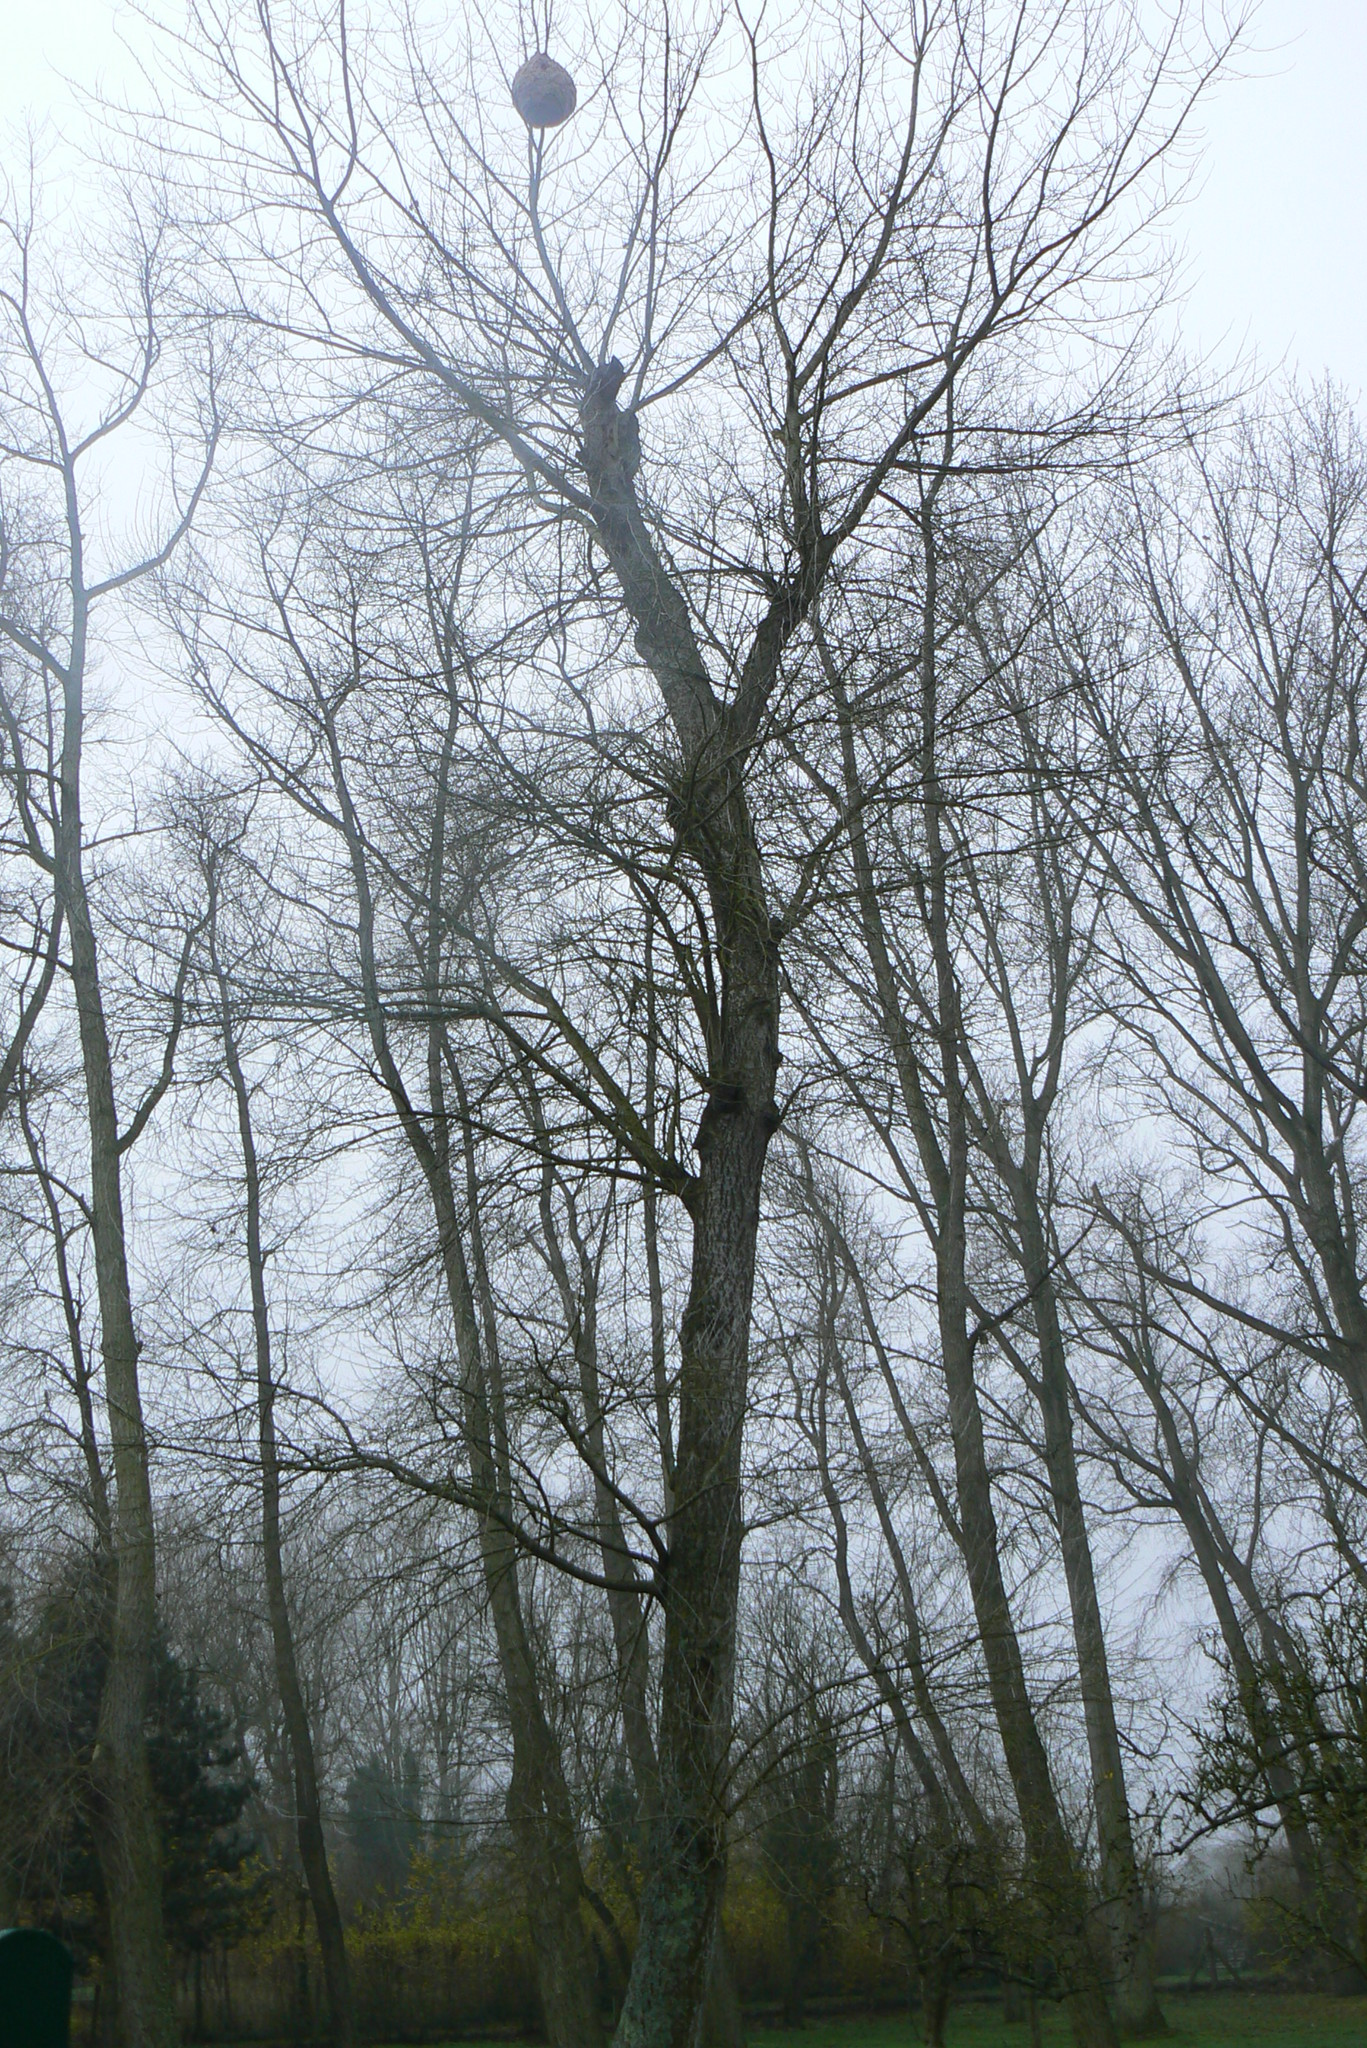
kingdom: Animalia
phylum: Arthropoda
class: Insecta
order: Hymenoptera
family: Vespidae
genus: Vespa
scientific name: Vespa velutina
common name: Asian hornet
